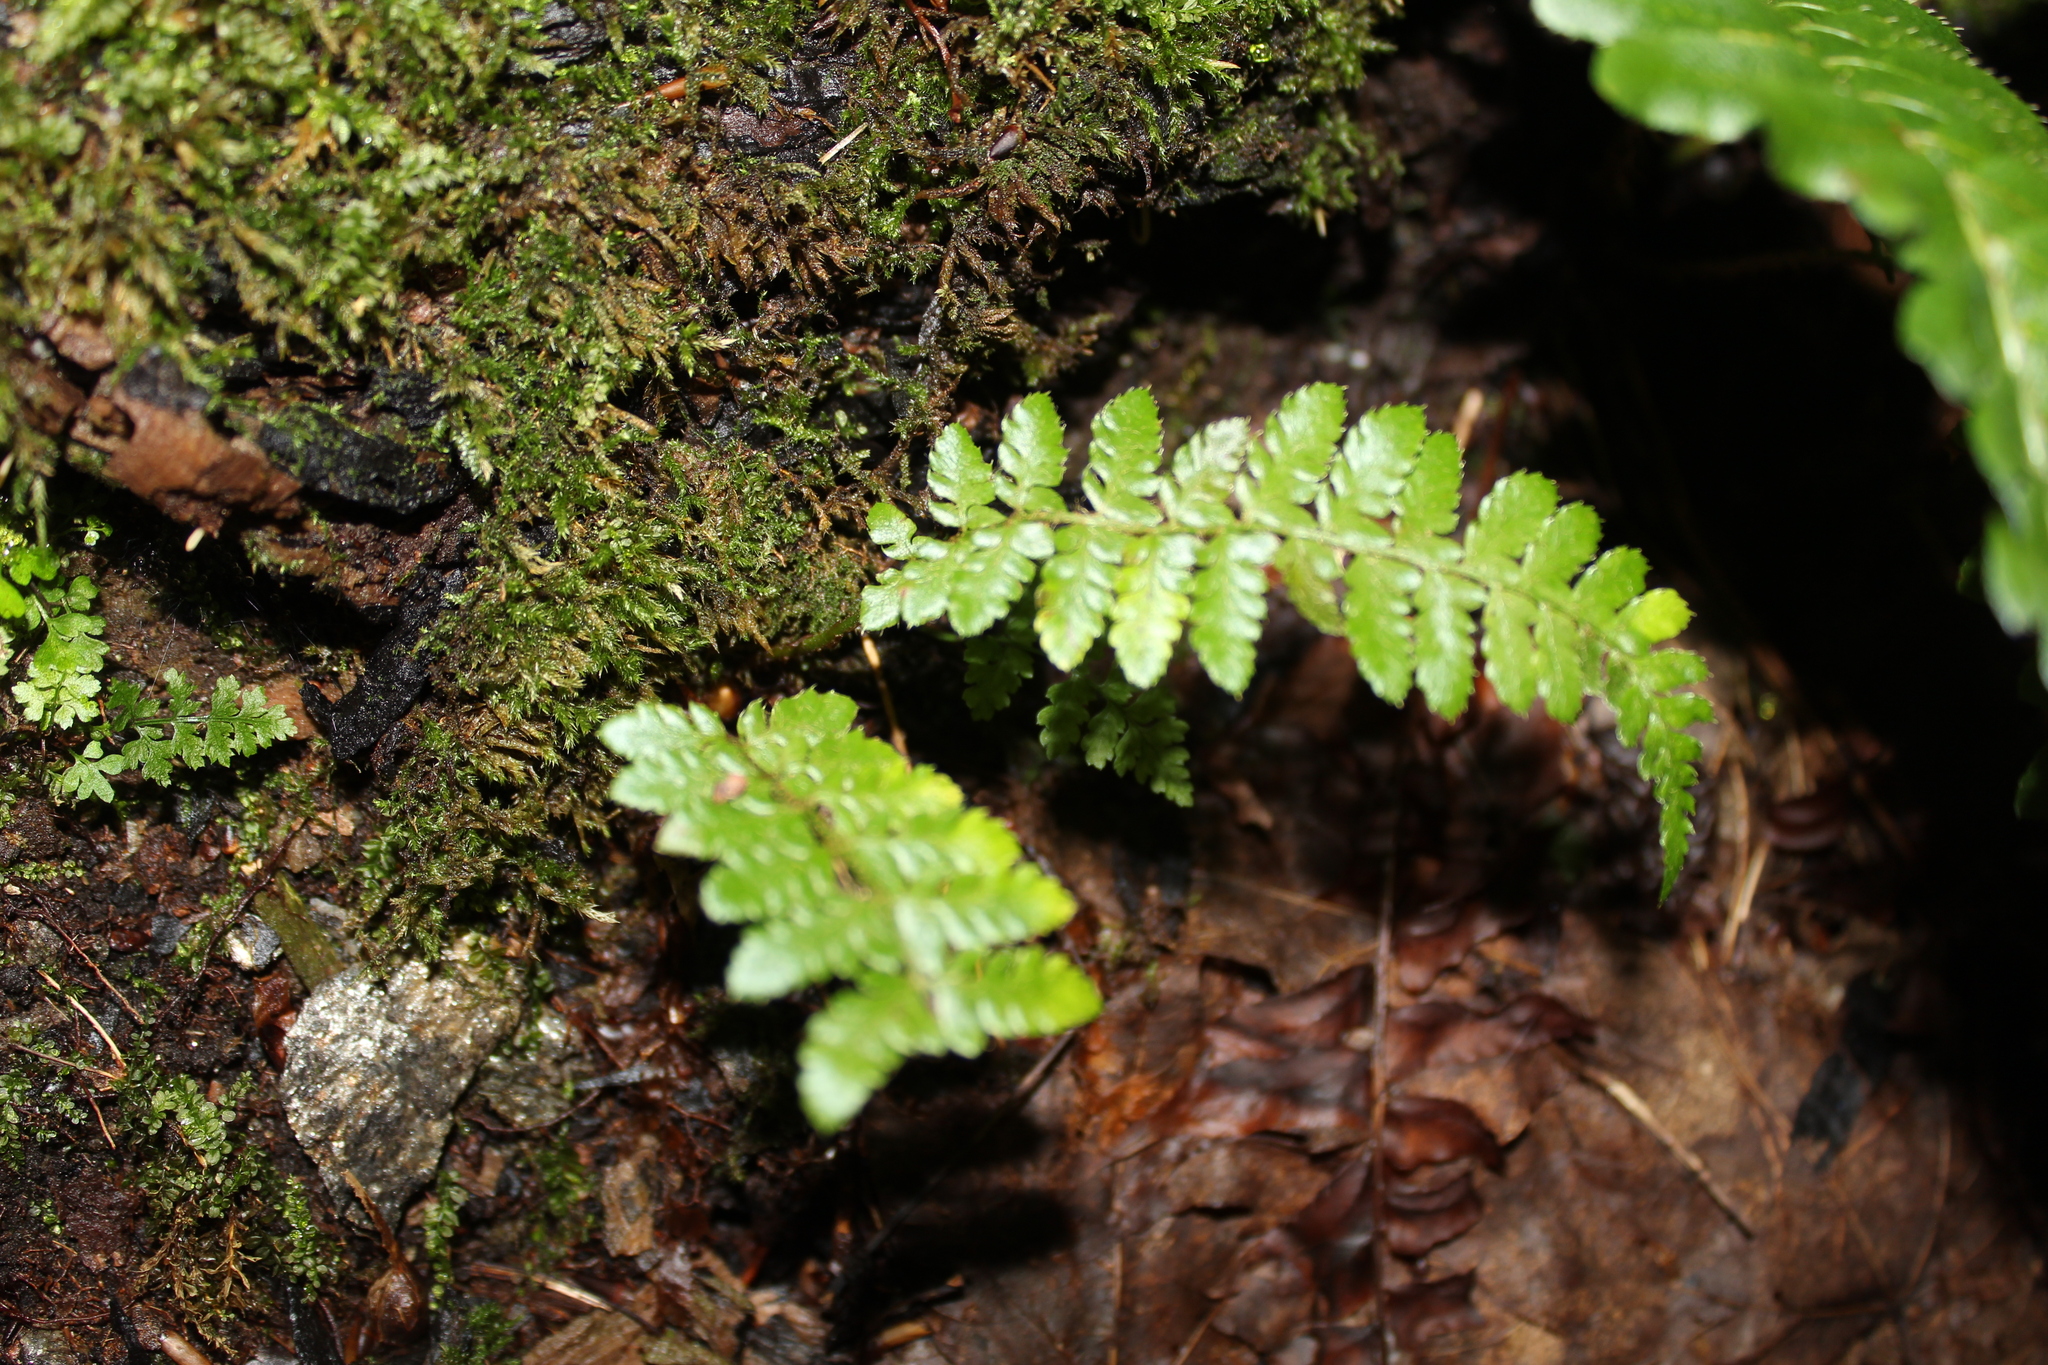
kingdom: Plantae
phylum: Tracheophyta
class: Polypodiopsida
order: Polypodiales
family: Dryopteridaceae
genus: Polystichum
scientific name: Polystichum braunii
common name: Braun's holly fern
